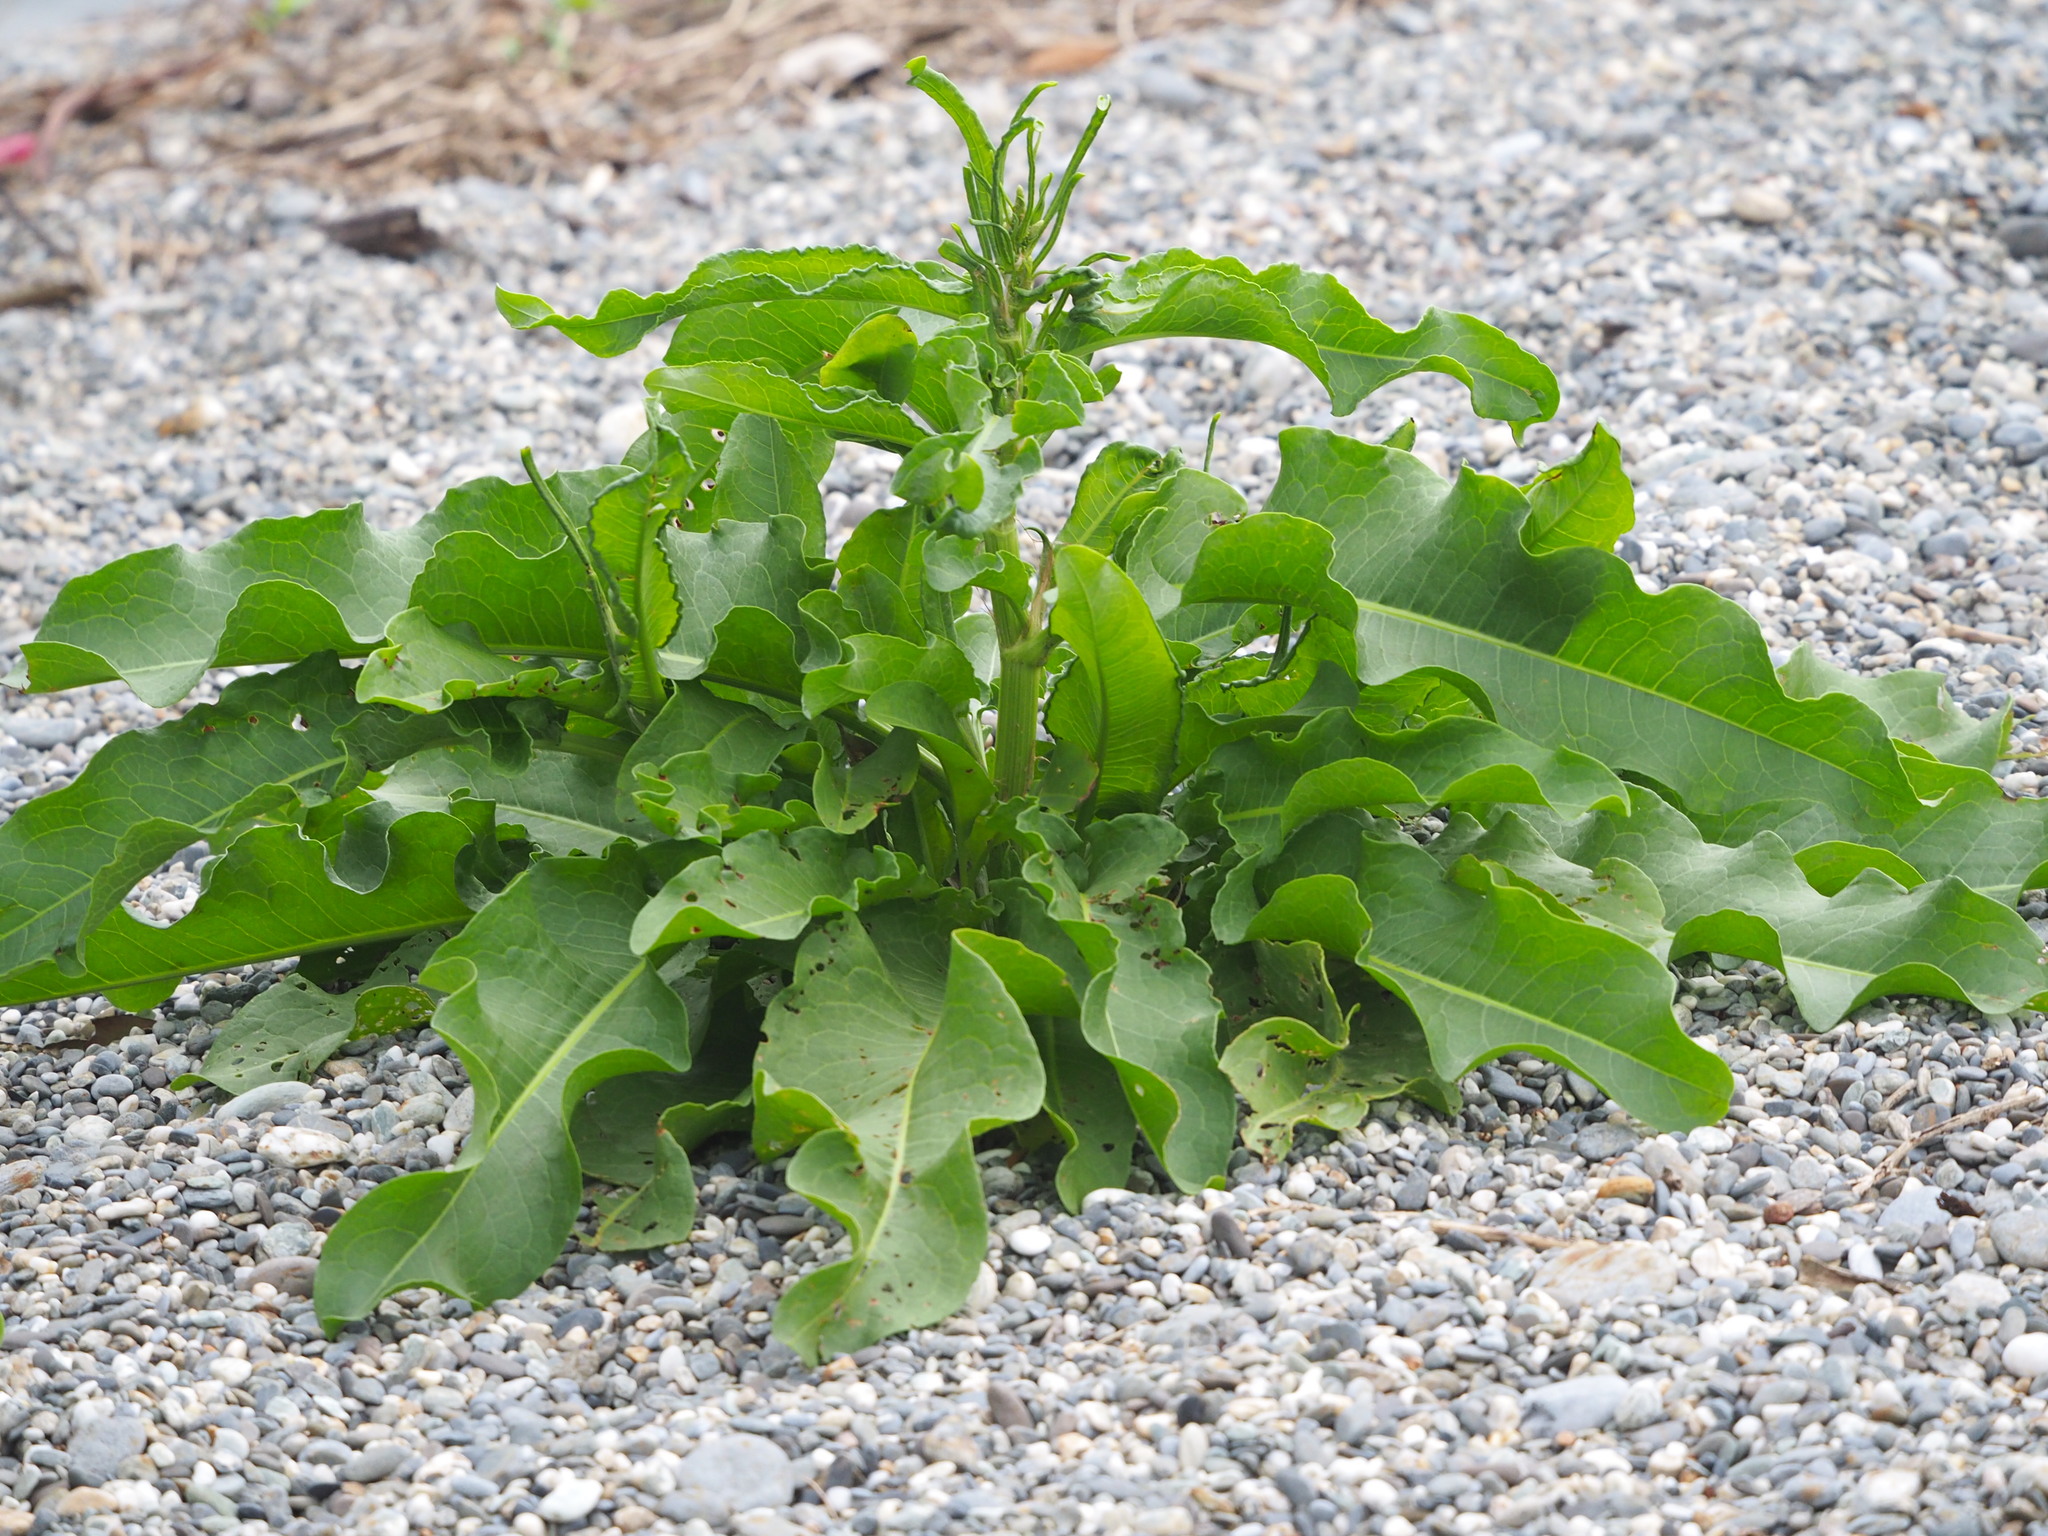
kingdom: Plantae
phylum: Tracheophyta
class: Magnoliopsida
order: Caryophyllales
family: Polygonaceae
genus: Rumex
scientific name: Rumex japonicus
